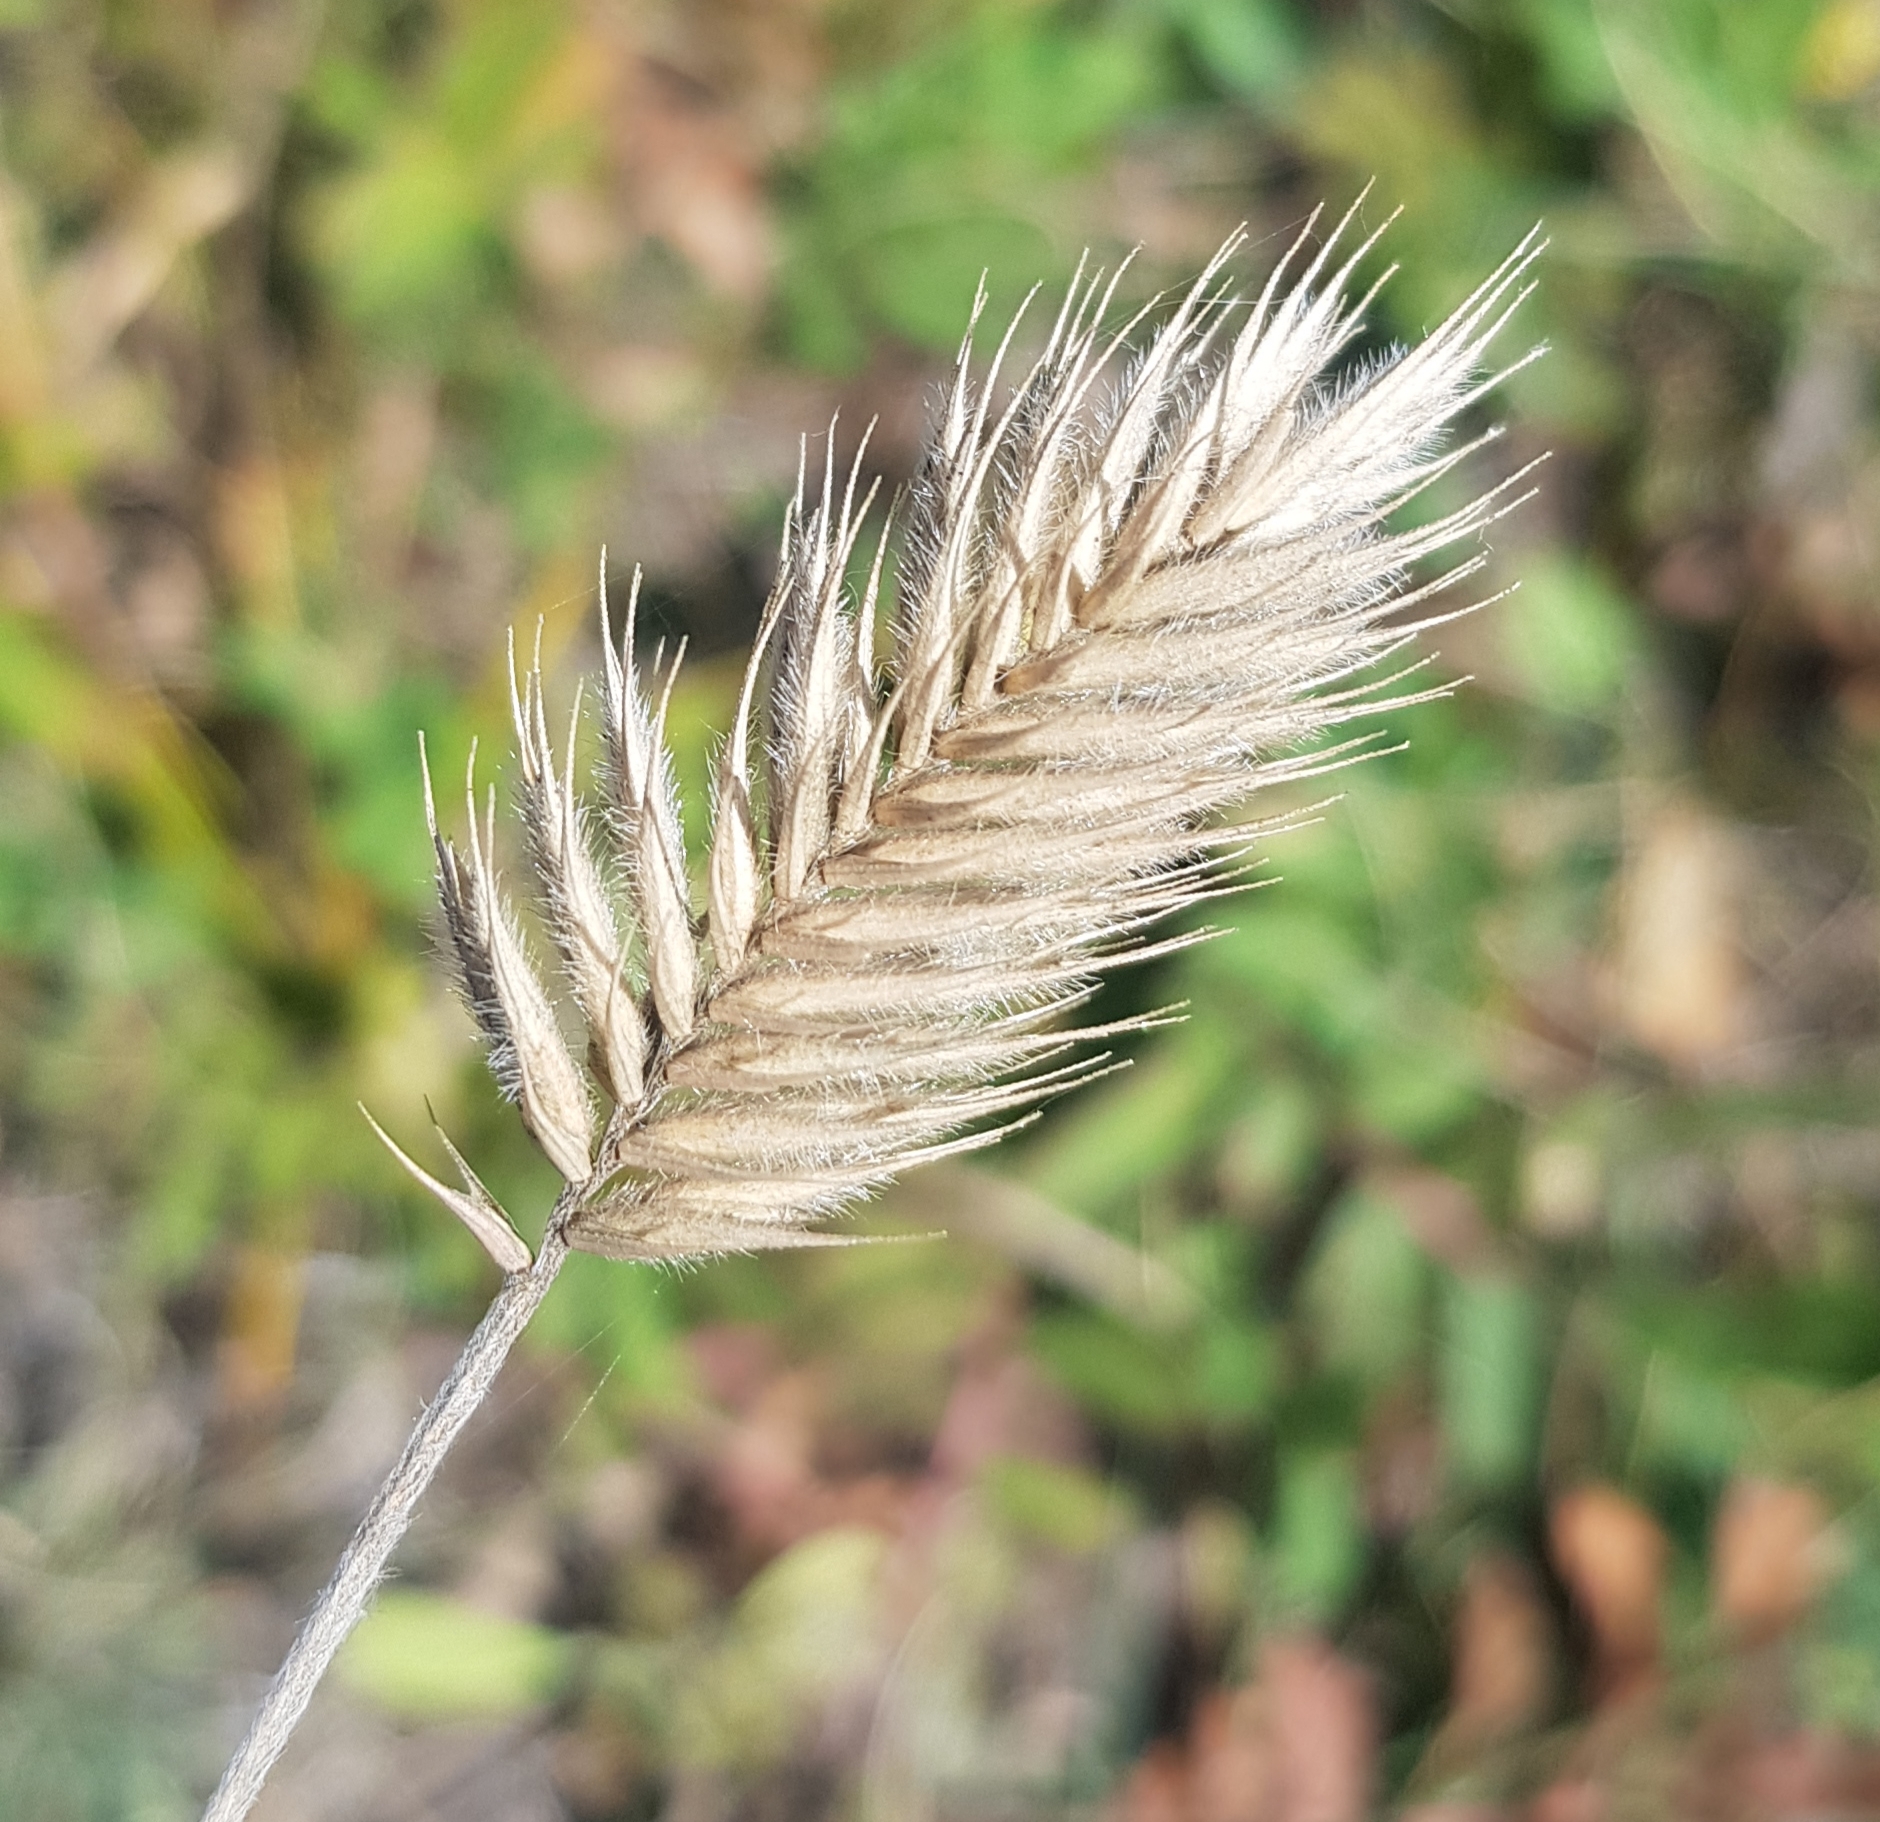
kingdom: Plantae
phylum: Tracheophyta
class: Liliopsida
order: Poales
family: Poaceae
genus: Agropyron
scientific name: Agropyron cristatum
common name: Crested wheatgrass
